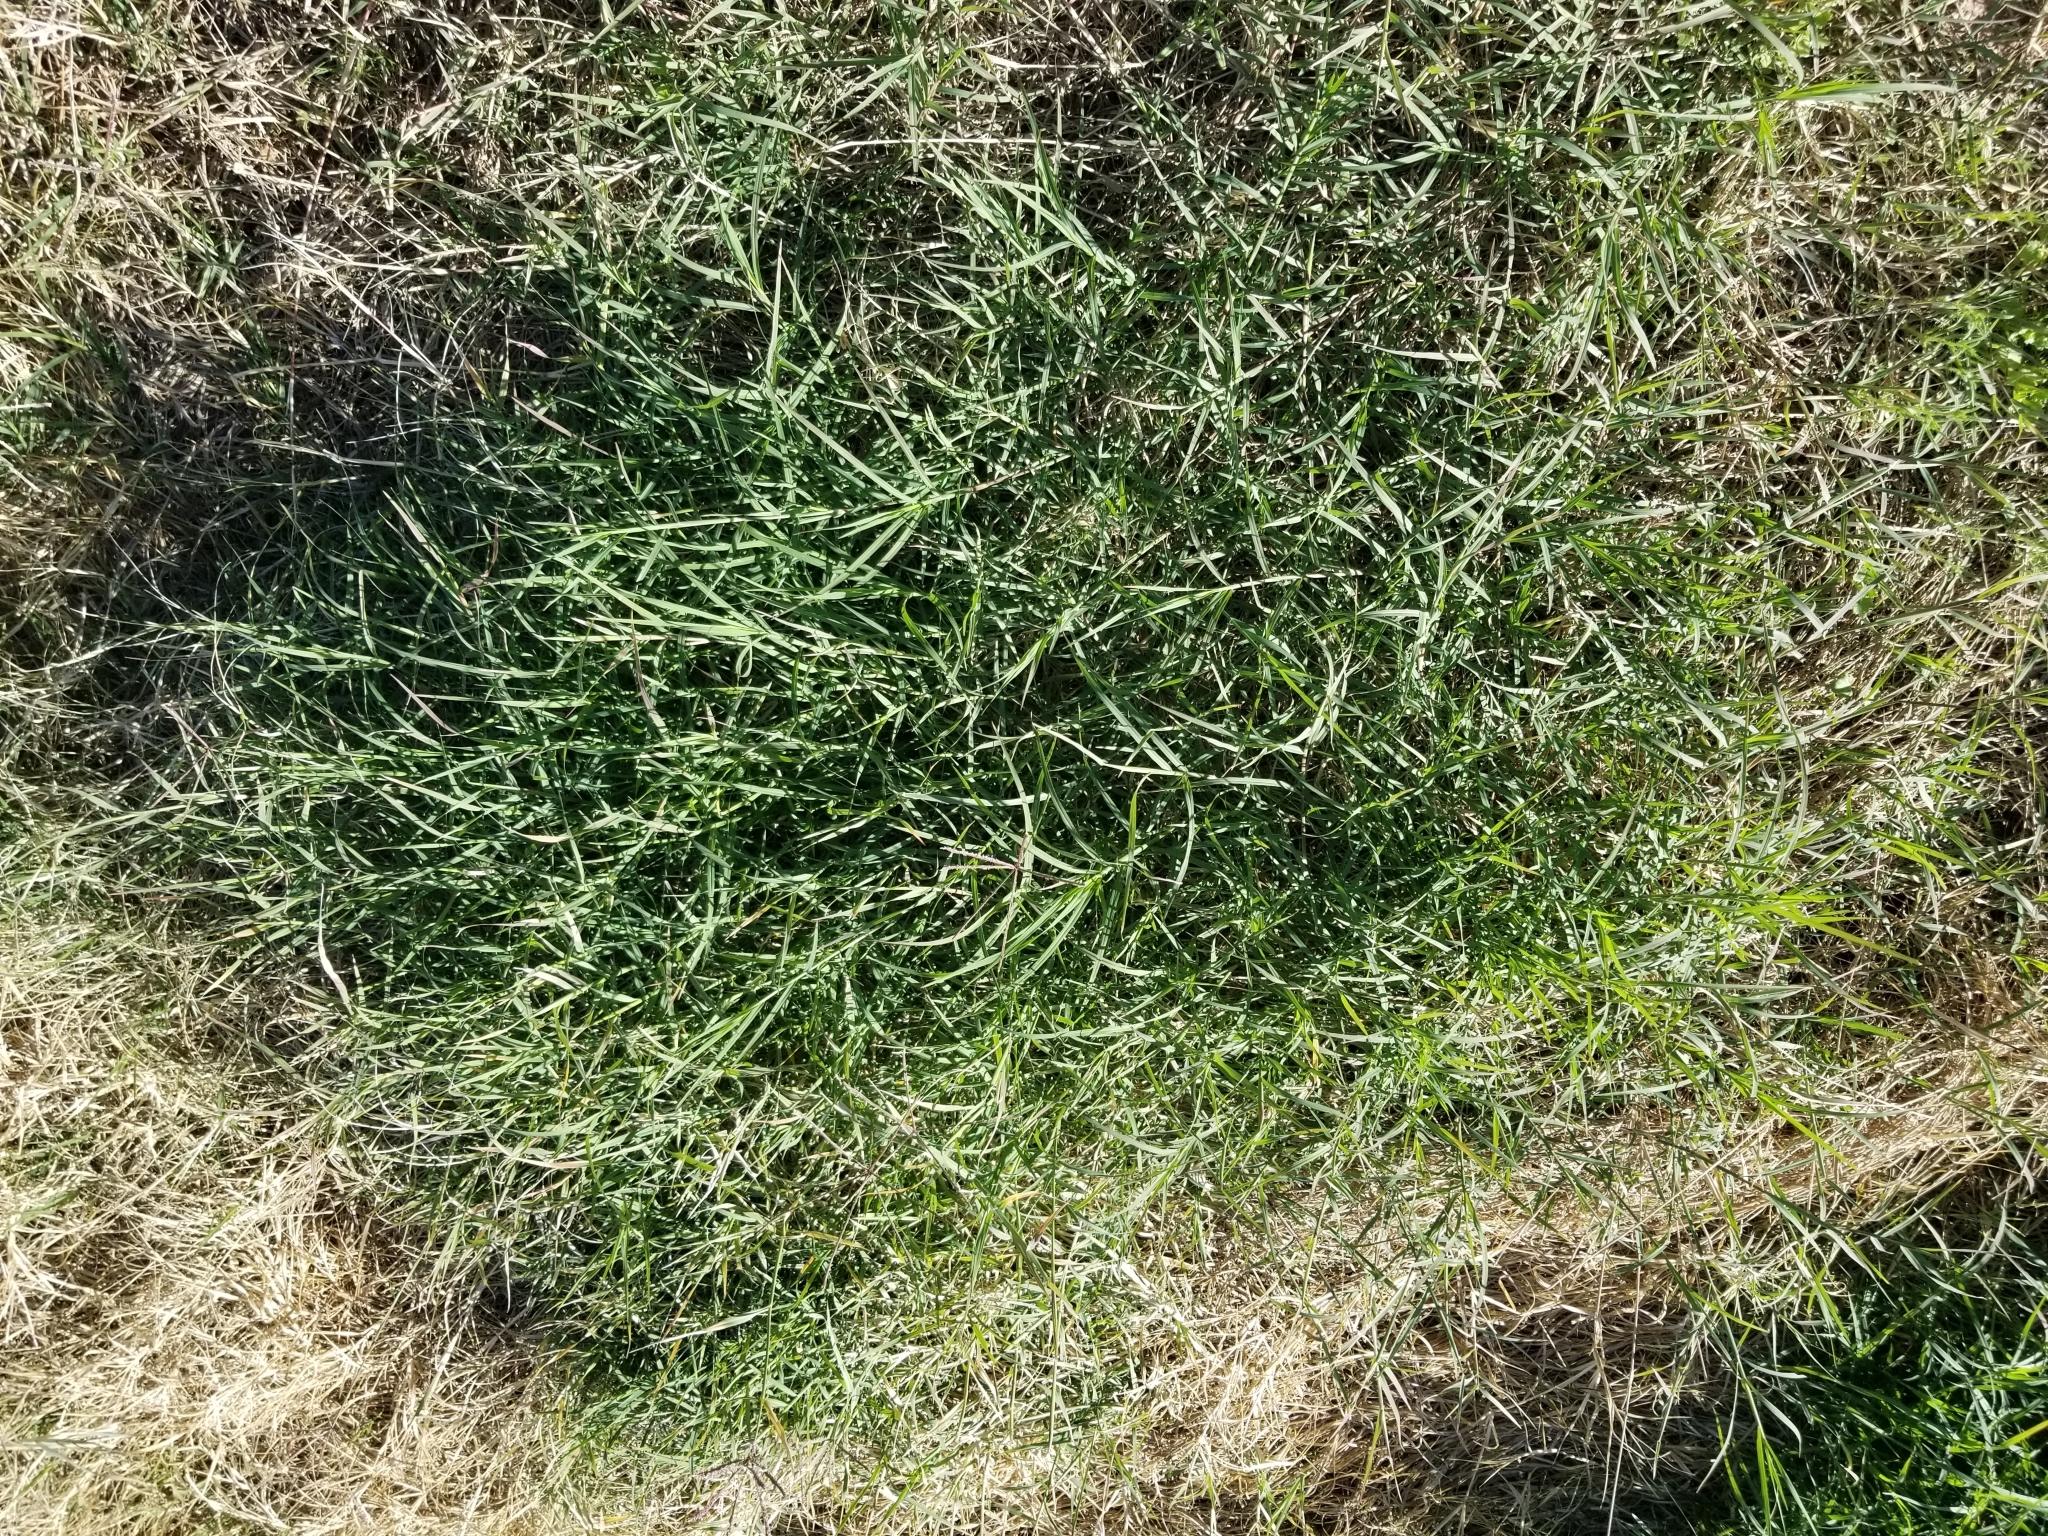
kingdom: Plantae
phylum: Tracheophyta
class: Liliopsida
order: Poales
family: Poaceae
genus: Cynodon
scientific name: Cynodon dactylon
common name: Bermuda grass
